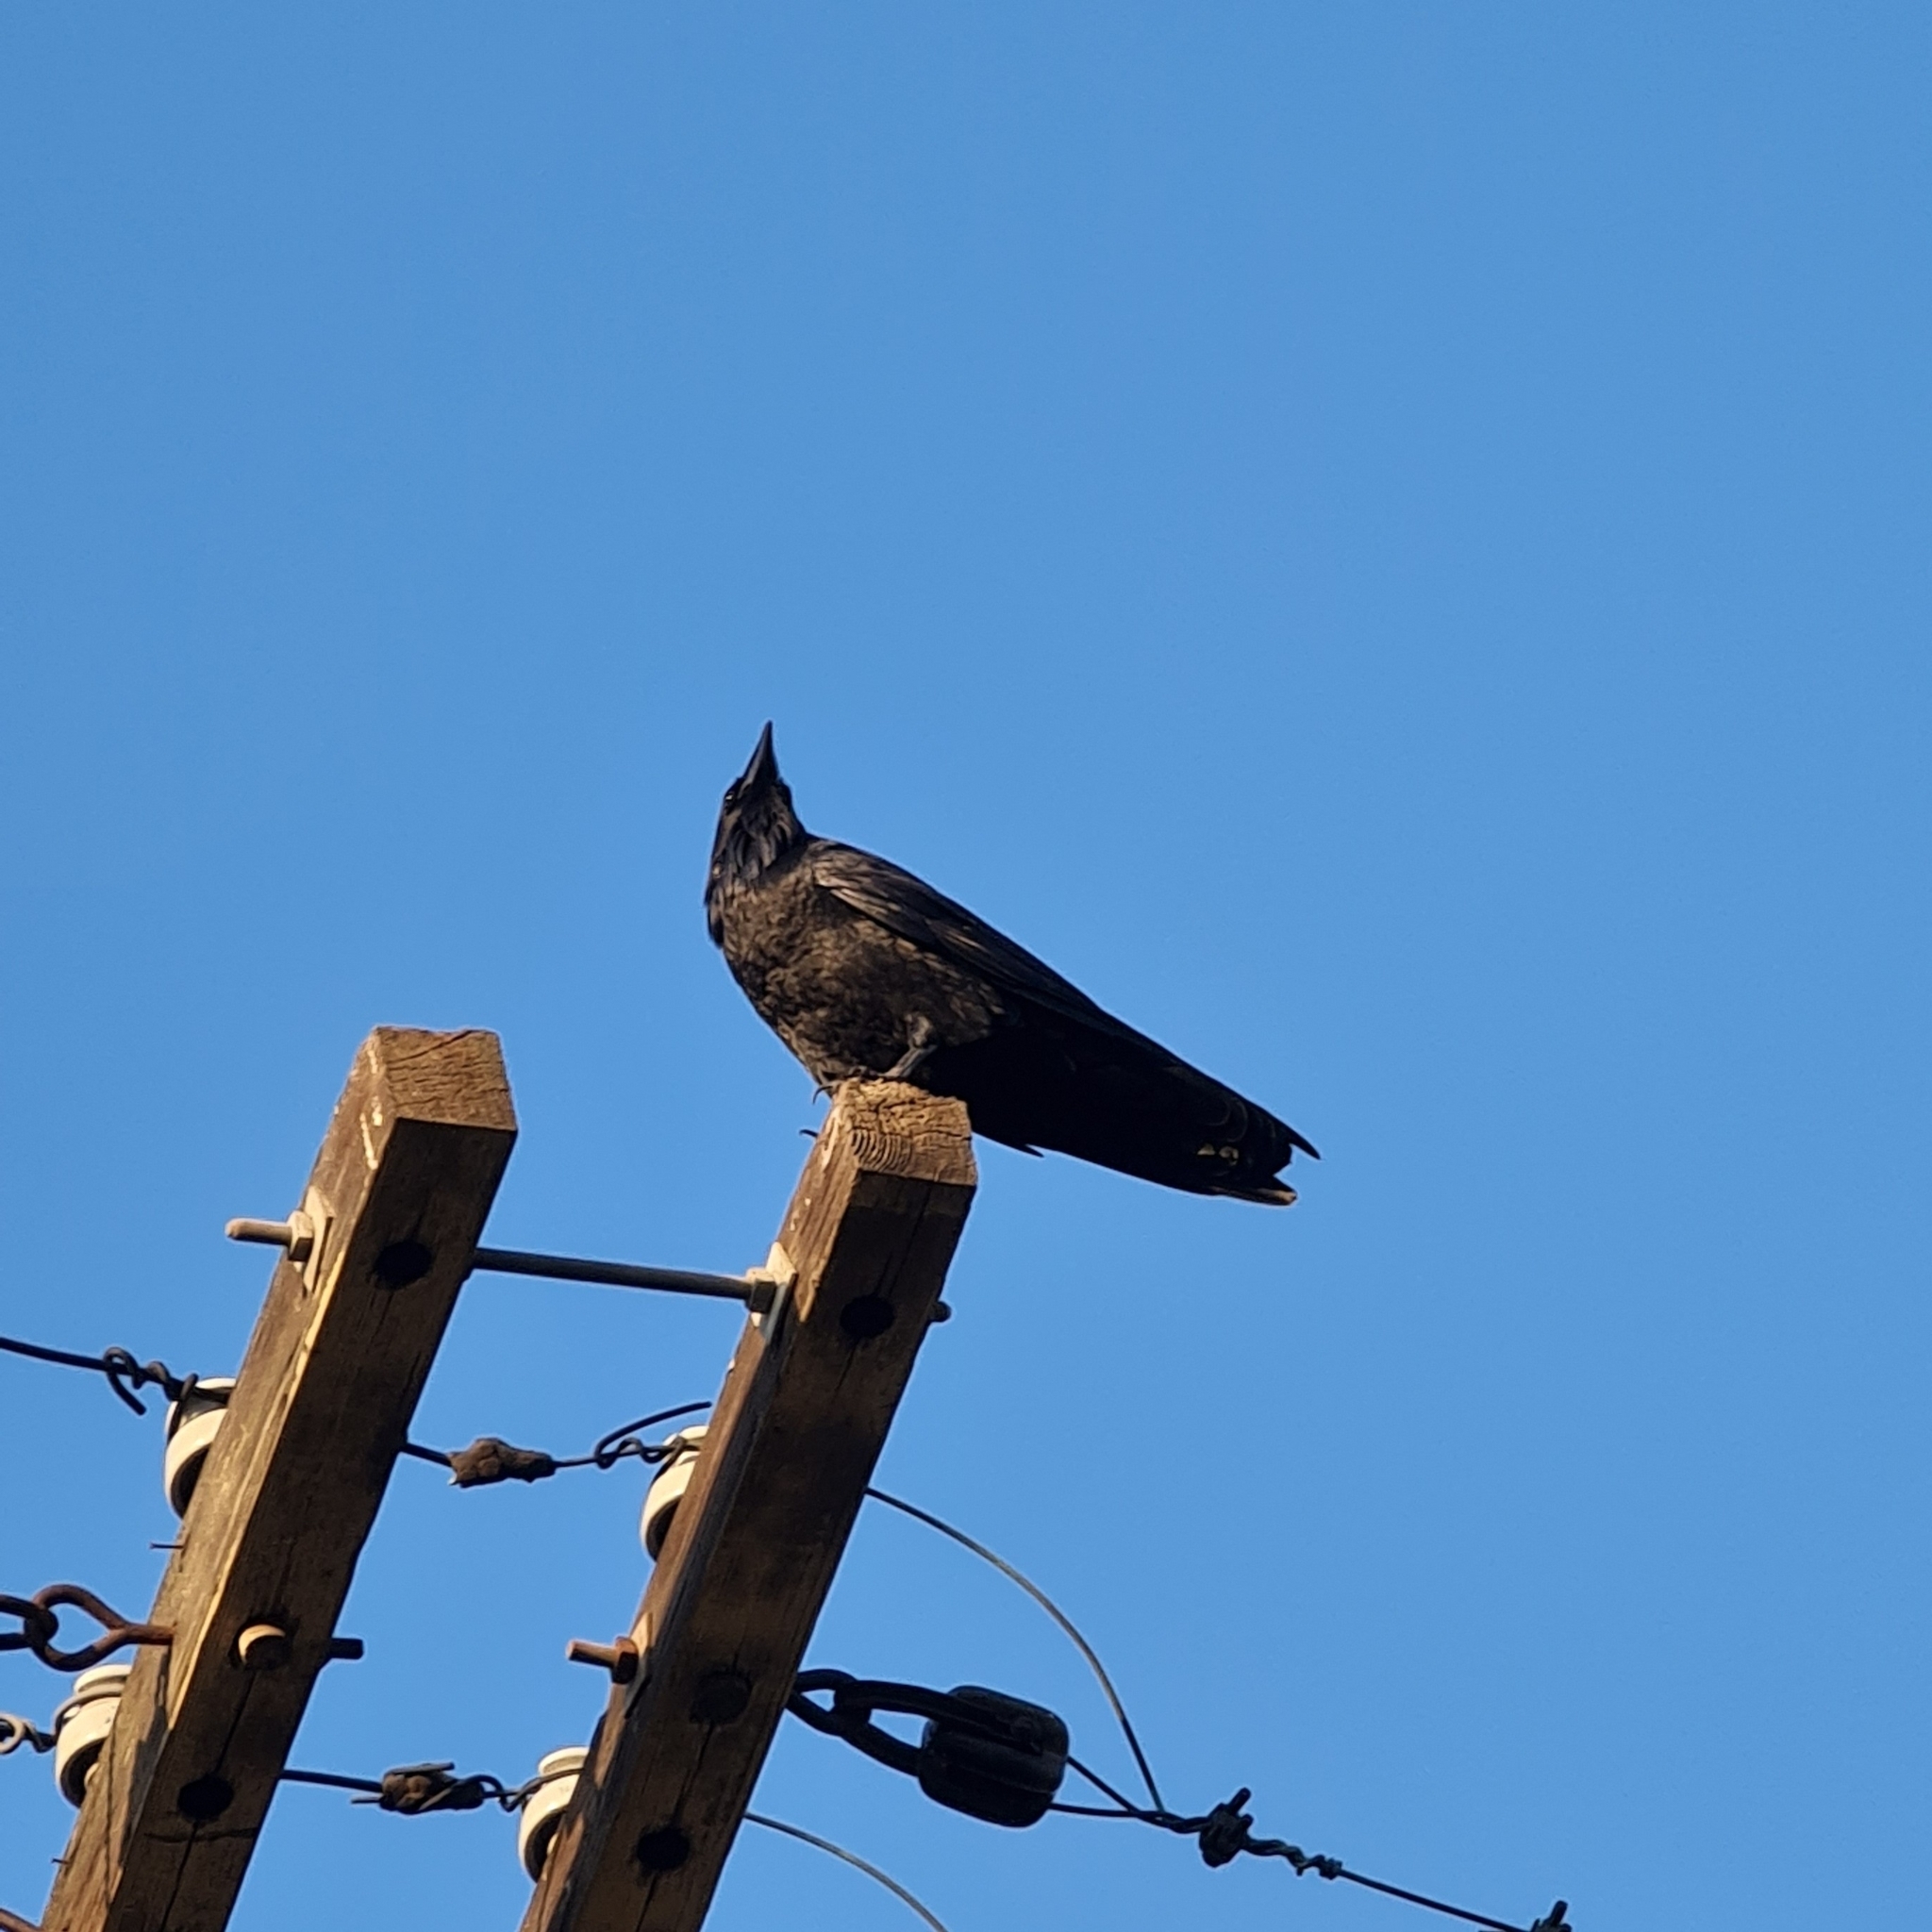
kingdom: Animalia
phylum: Chordata
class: Aves
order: Passeriformes
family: Corvidae
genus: Corvus
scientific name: Corvus corax
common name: Common raven
